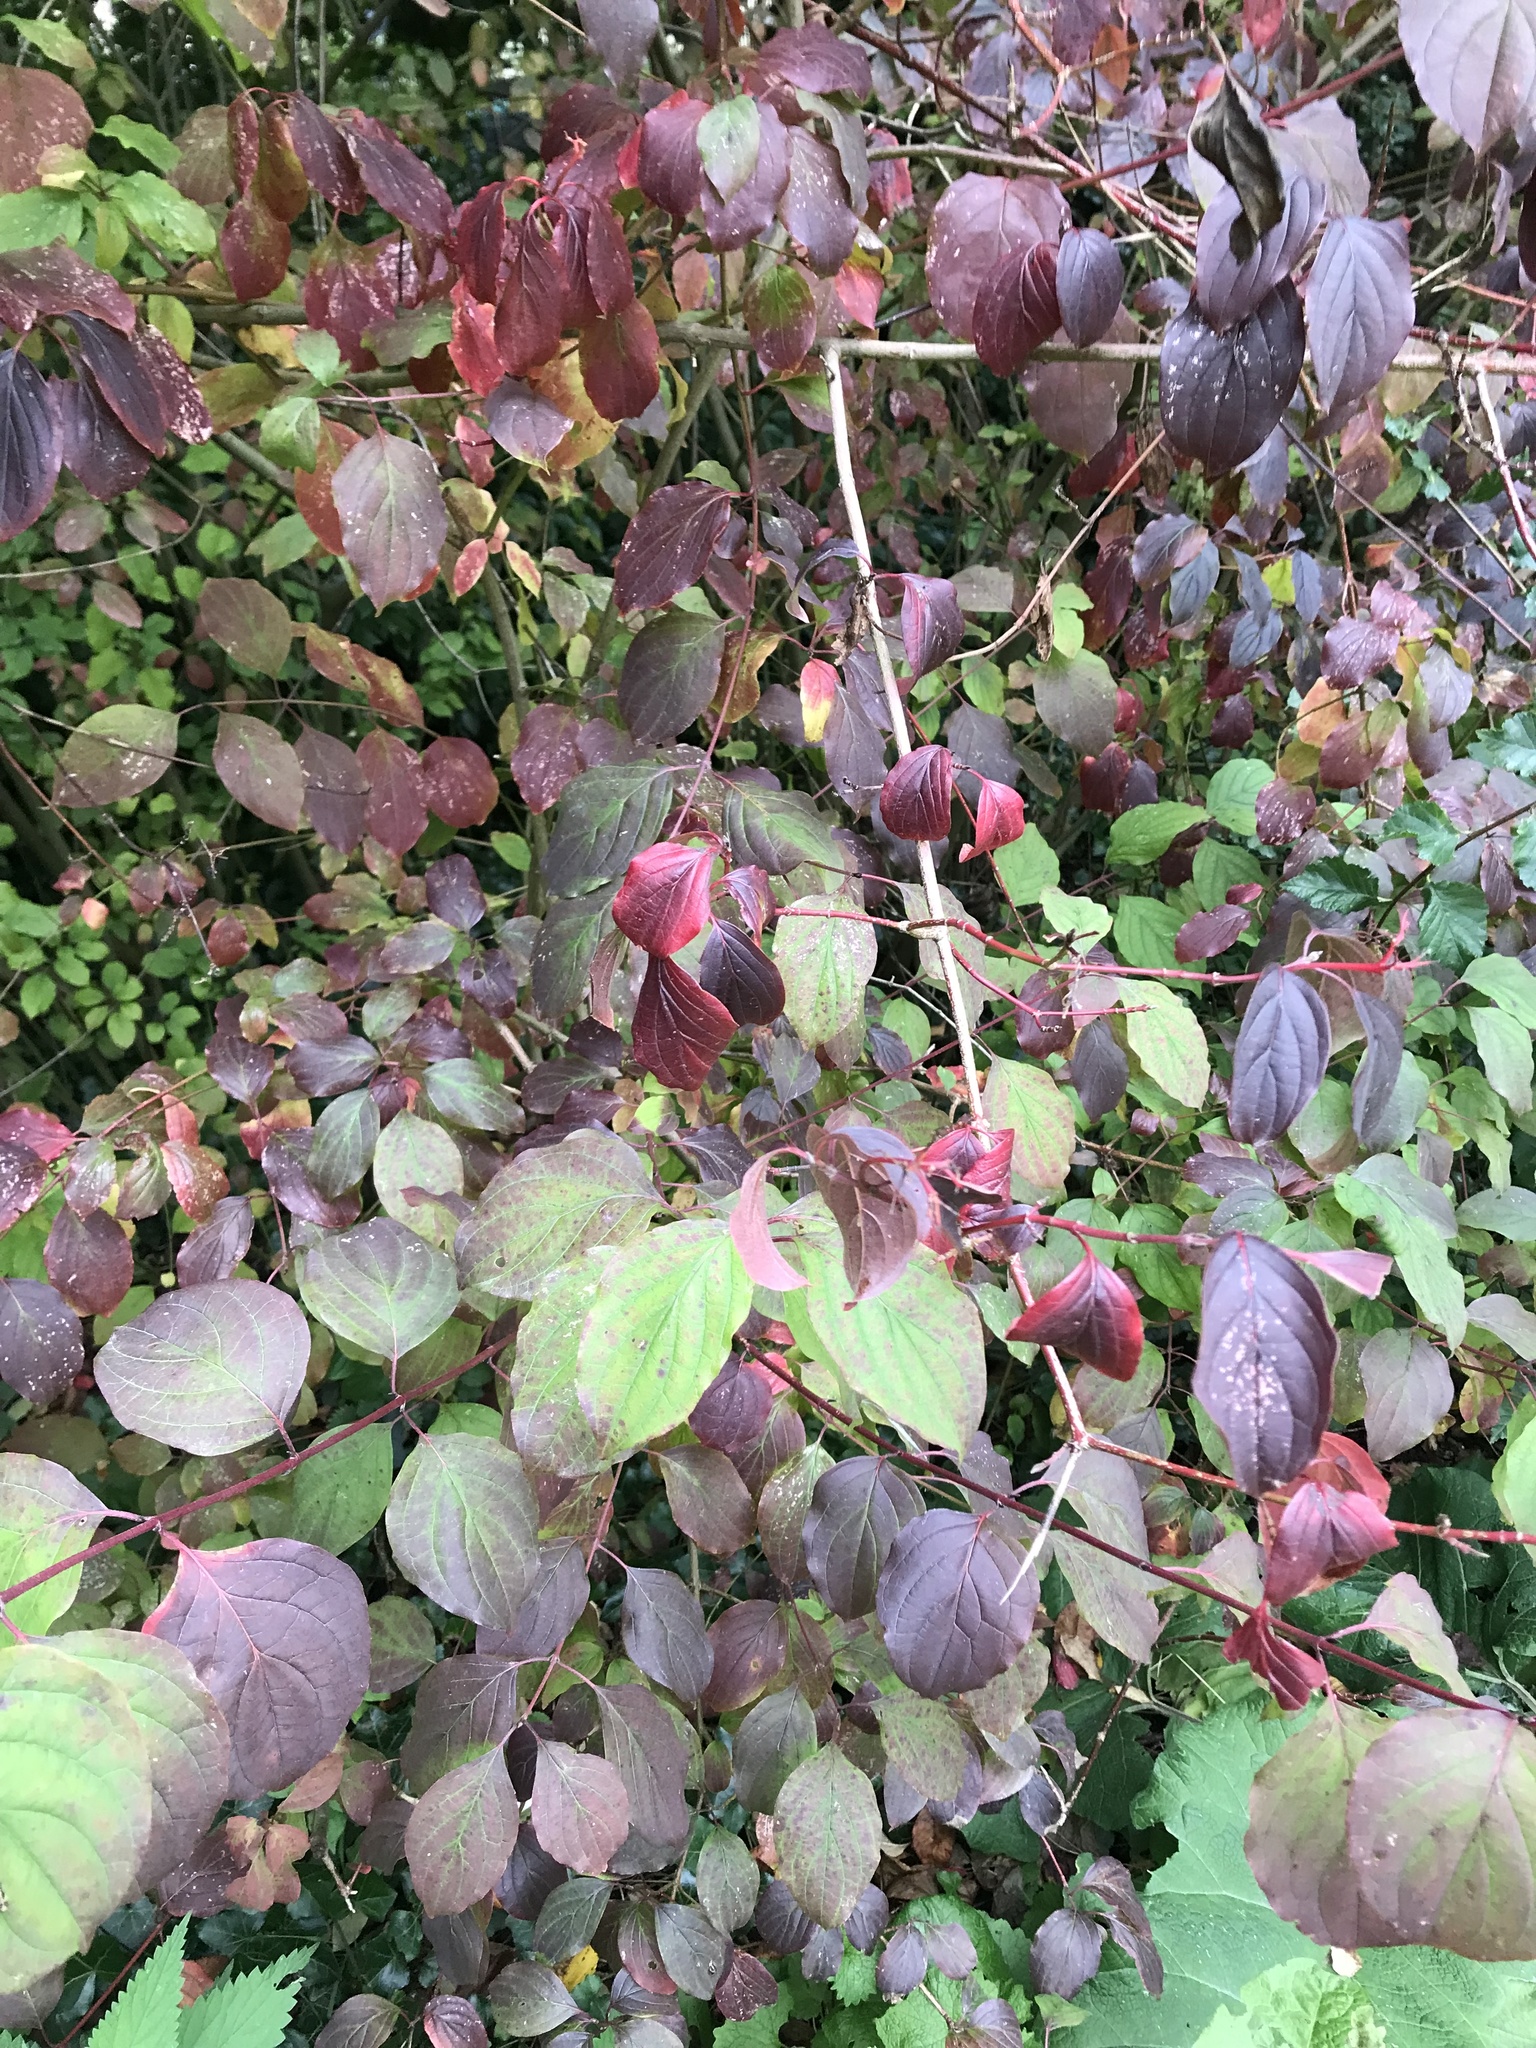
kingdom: Plantae
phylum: Tracheophyta
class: Magnoliopsida
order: Cornales
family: Cornaceae
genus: Cornus
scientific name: Cornus sanguinea
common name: Dogwood
